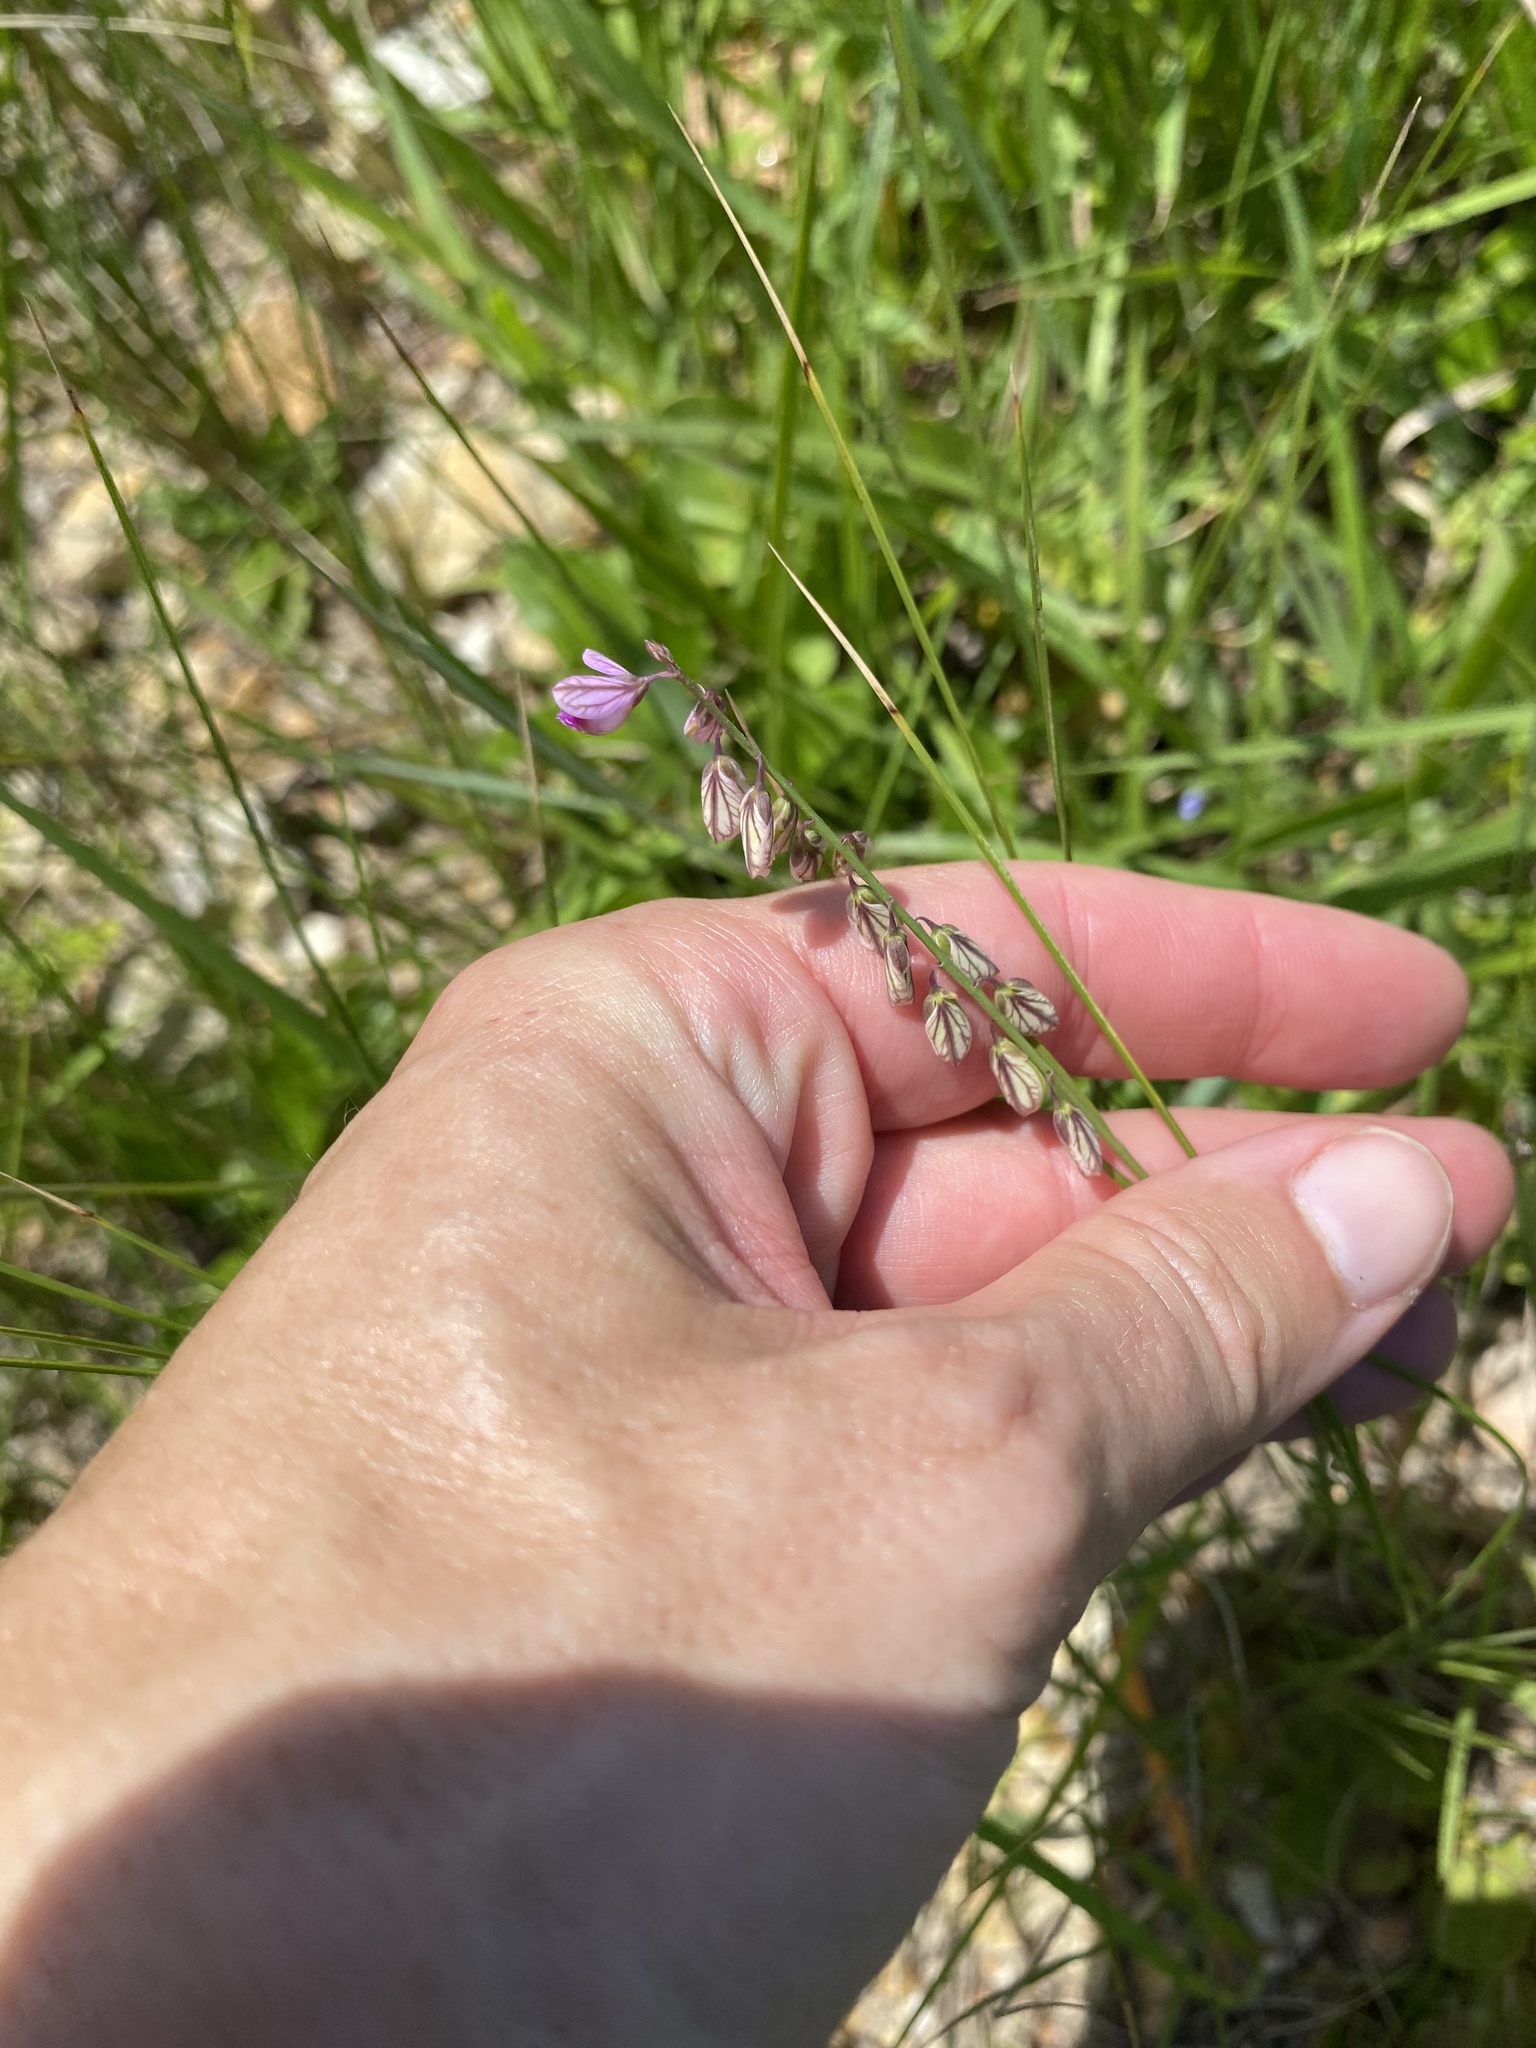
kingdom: Plantae
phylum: Tracheophyta
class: Magnoliopsida
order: Fabales
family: Polygalaceae
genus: Polygala
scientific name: Polygala hottentotta
